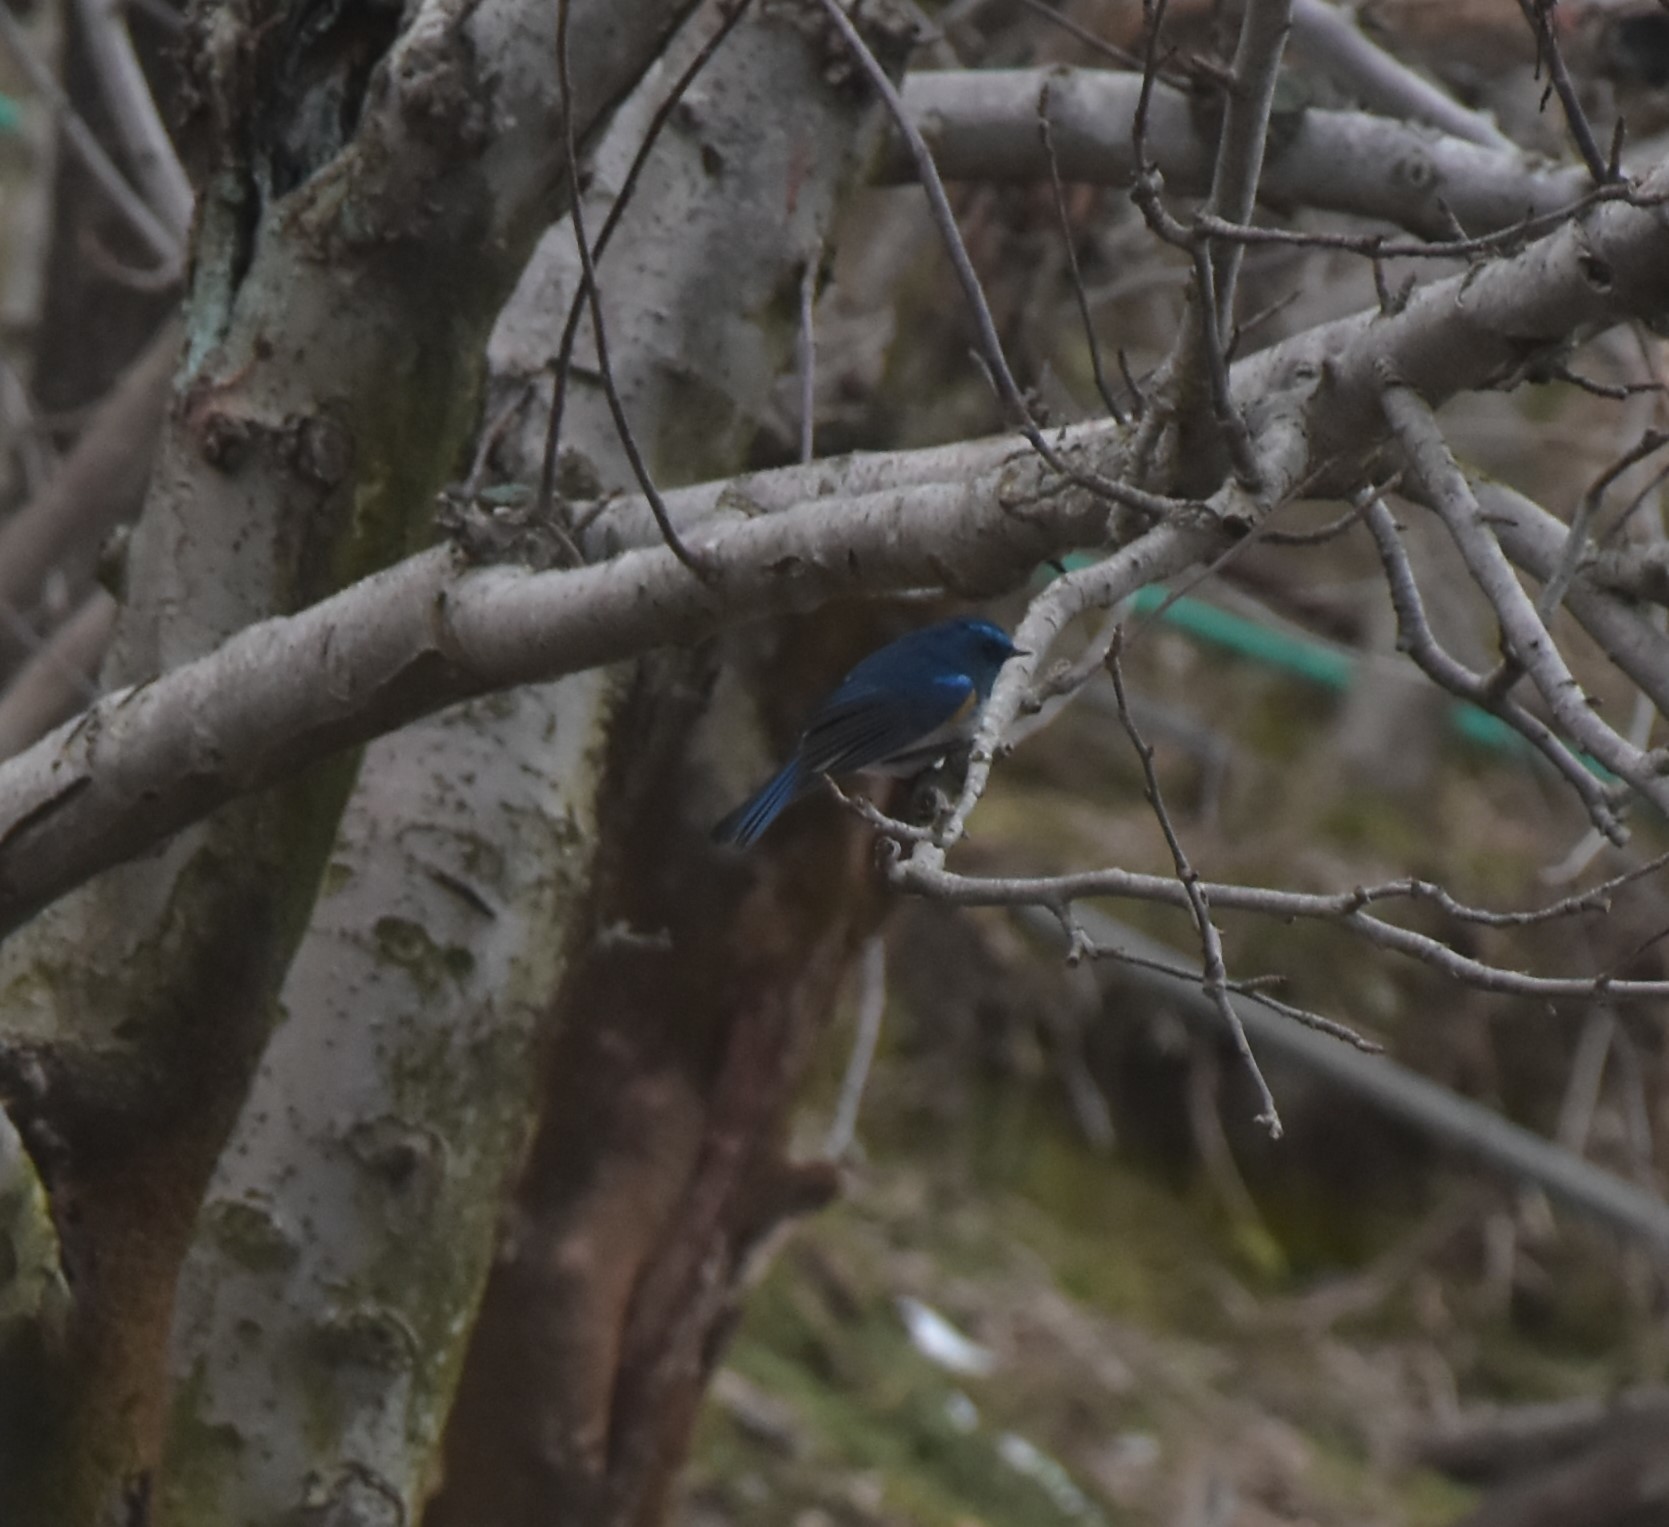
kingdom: Animalia
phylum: Chordata
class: Aves
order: Passeriformes
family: Muscicapidae
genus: Tarsiger
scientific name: Tarsiger rufilatus
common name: Himalayan bluetail
